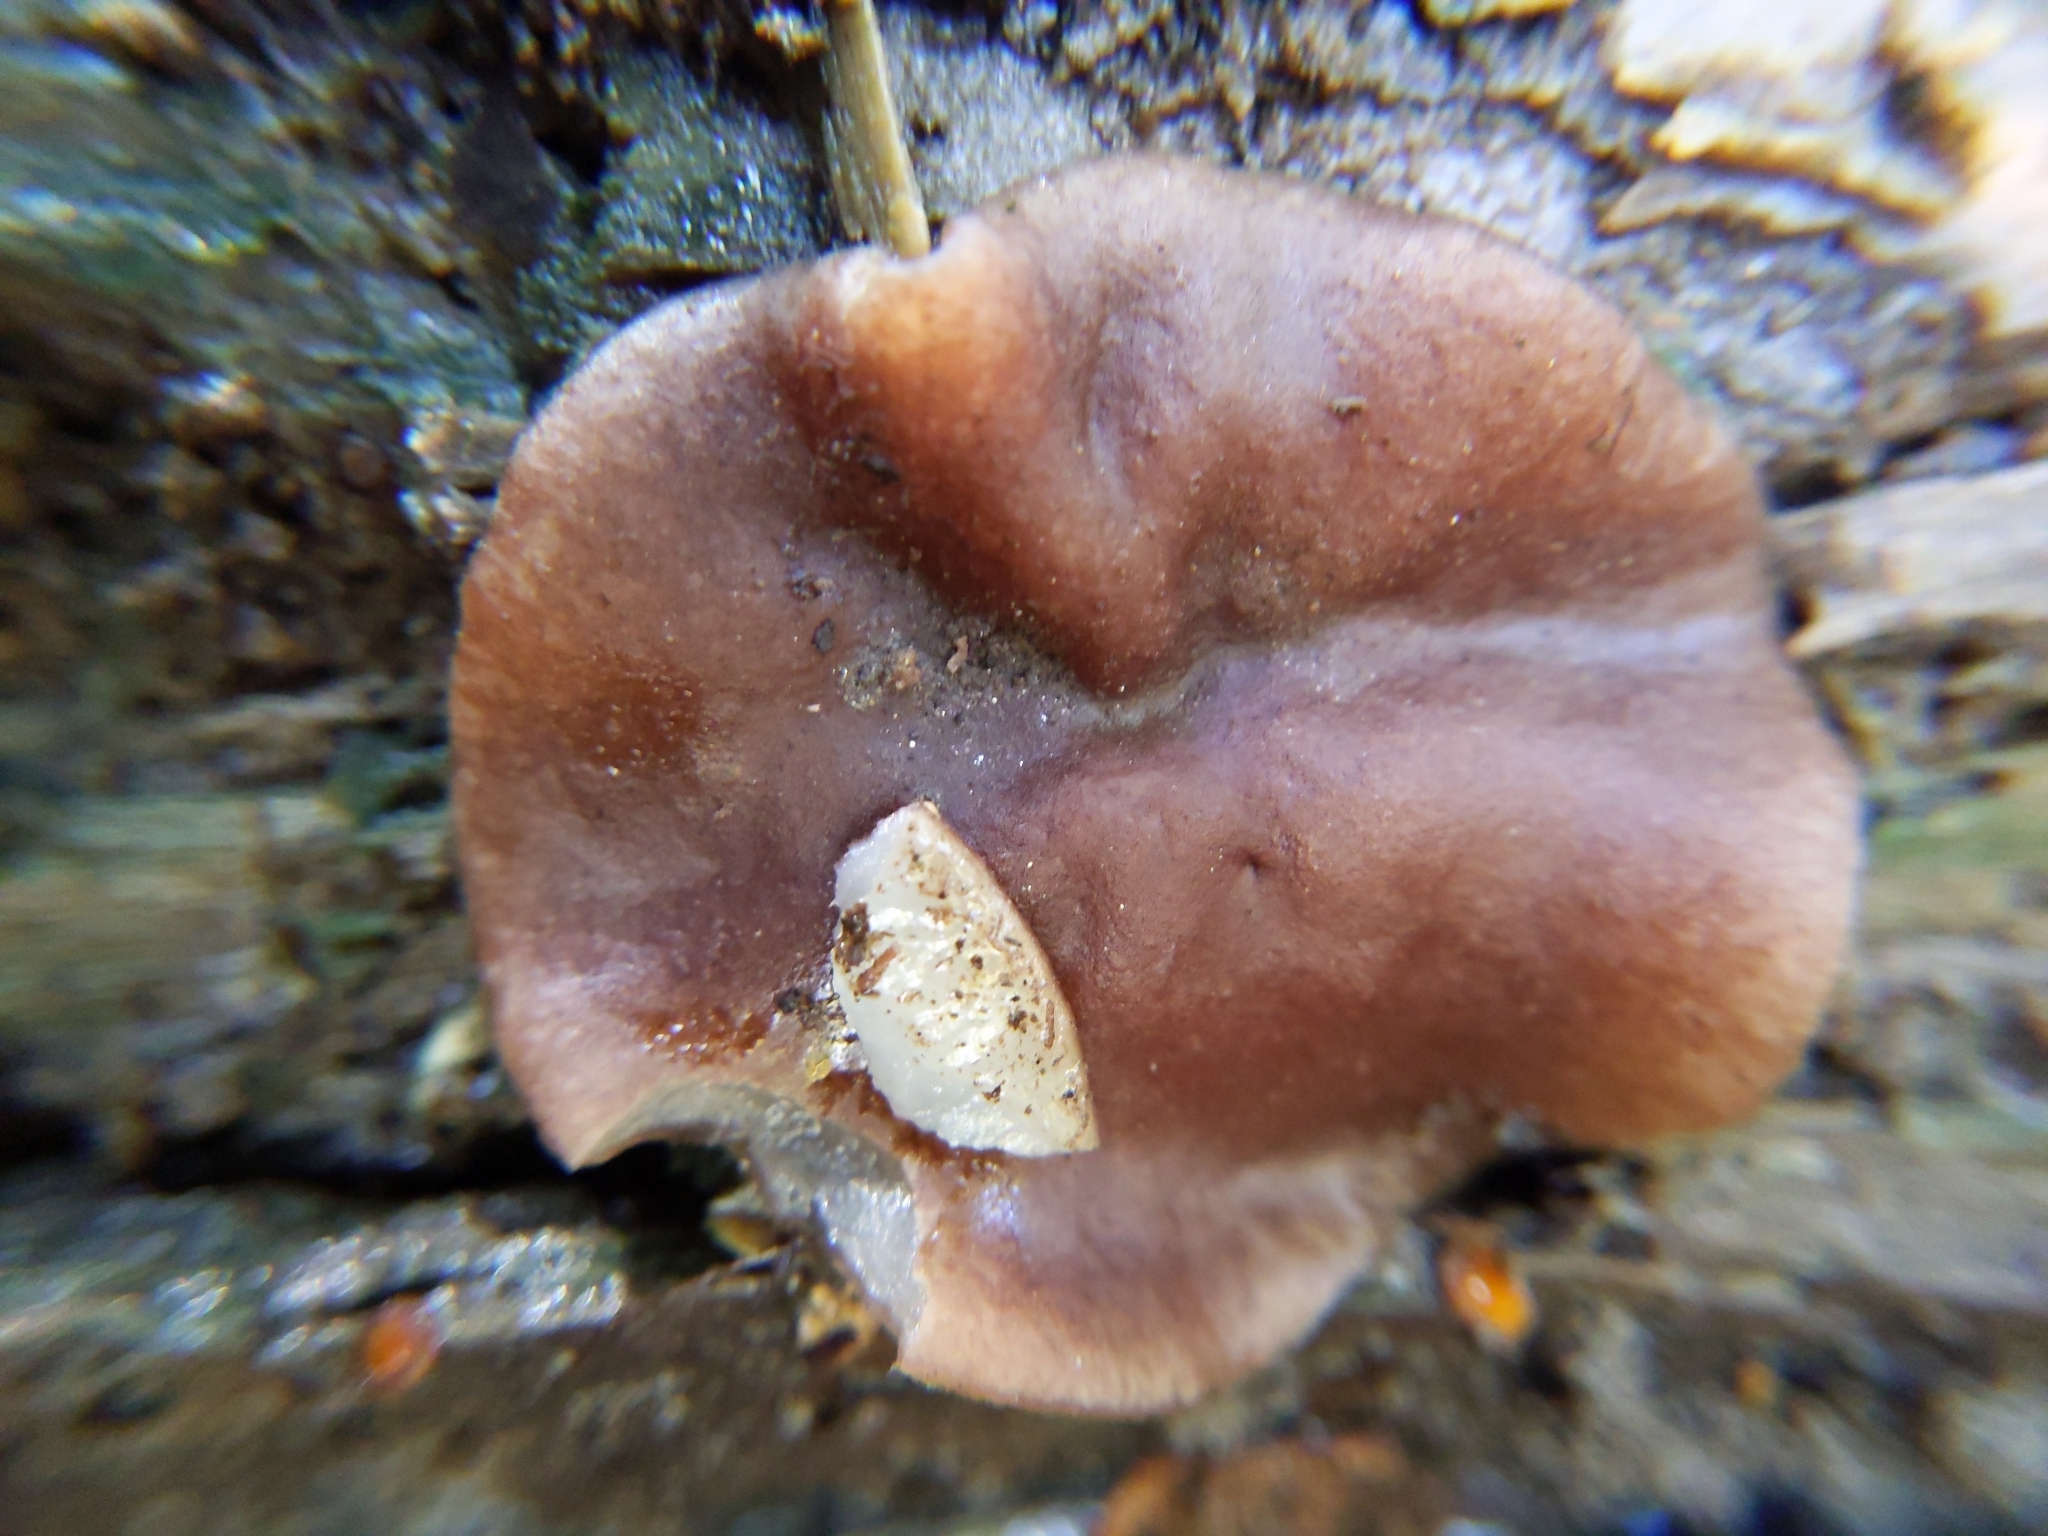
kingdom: Fungi
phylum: Ascomycota
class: Pezizomycetes
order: Pezizales
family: Pezizaceae
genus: Pachyella
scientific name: Pachyella clypeata
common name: Copper penny fungus
